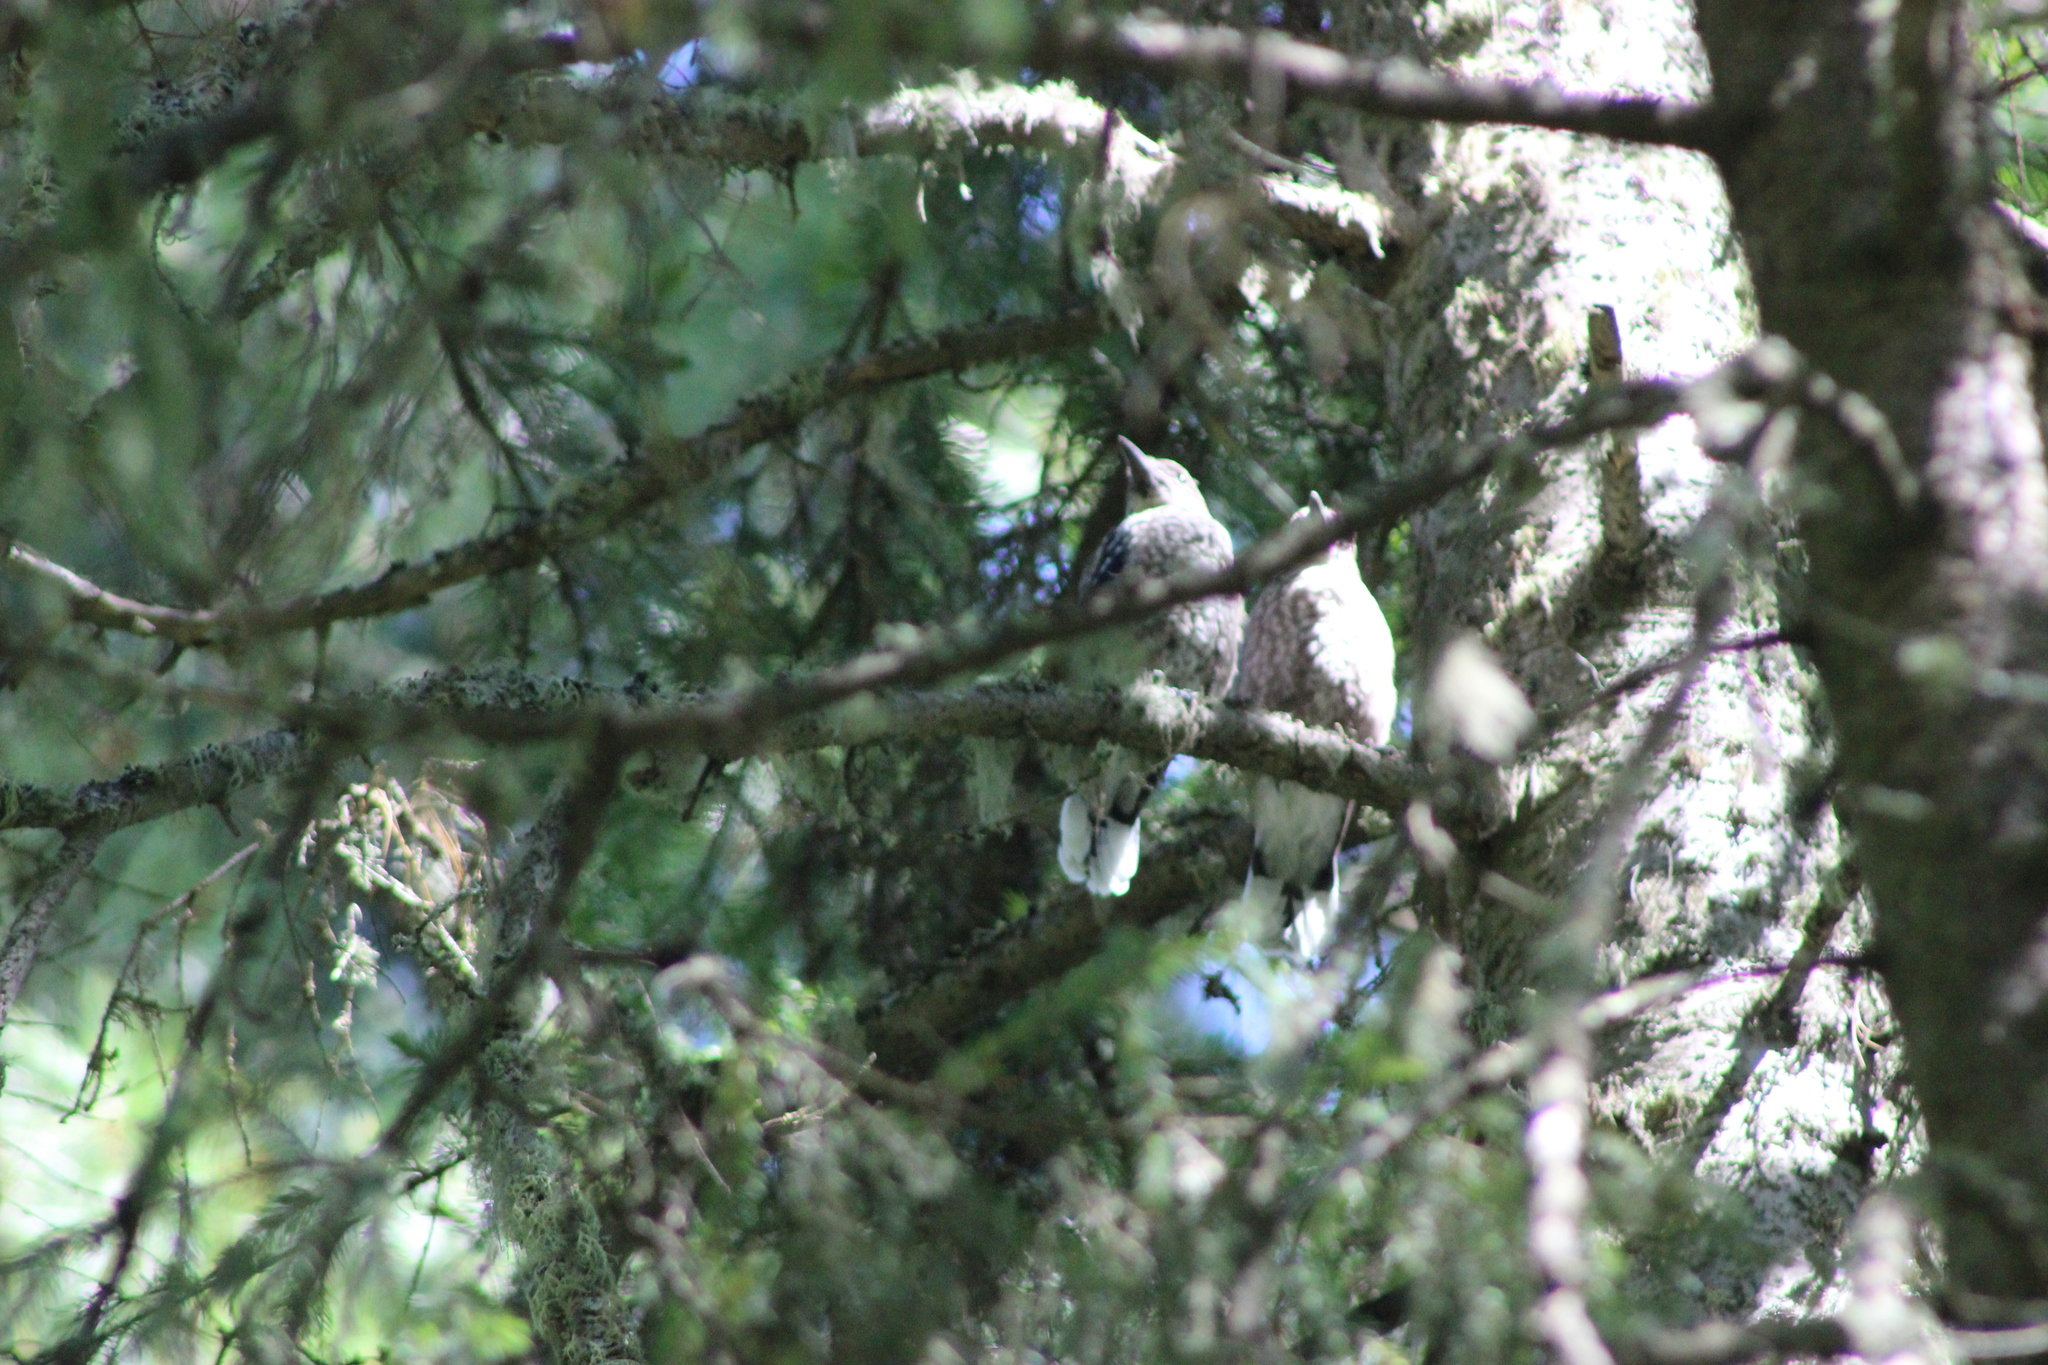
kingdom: Animalia
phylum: Chordata
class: Aves
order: Passeriformes
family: Corvidae
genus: Nucifraga
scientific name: Nucifraga caryocatactes
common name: Spotted nutcracker
